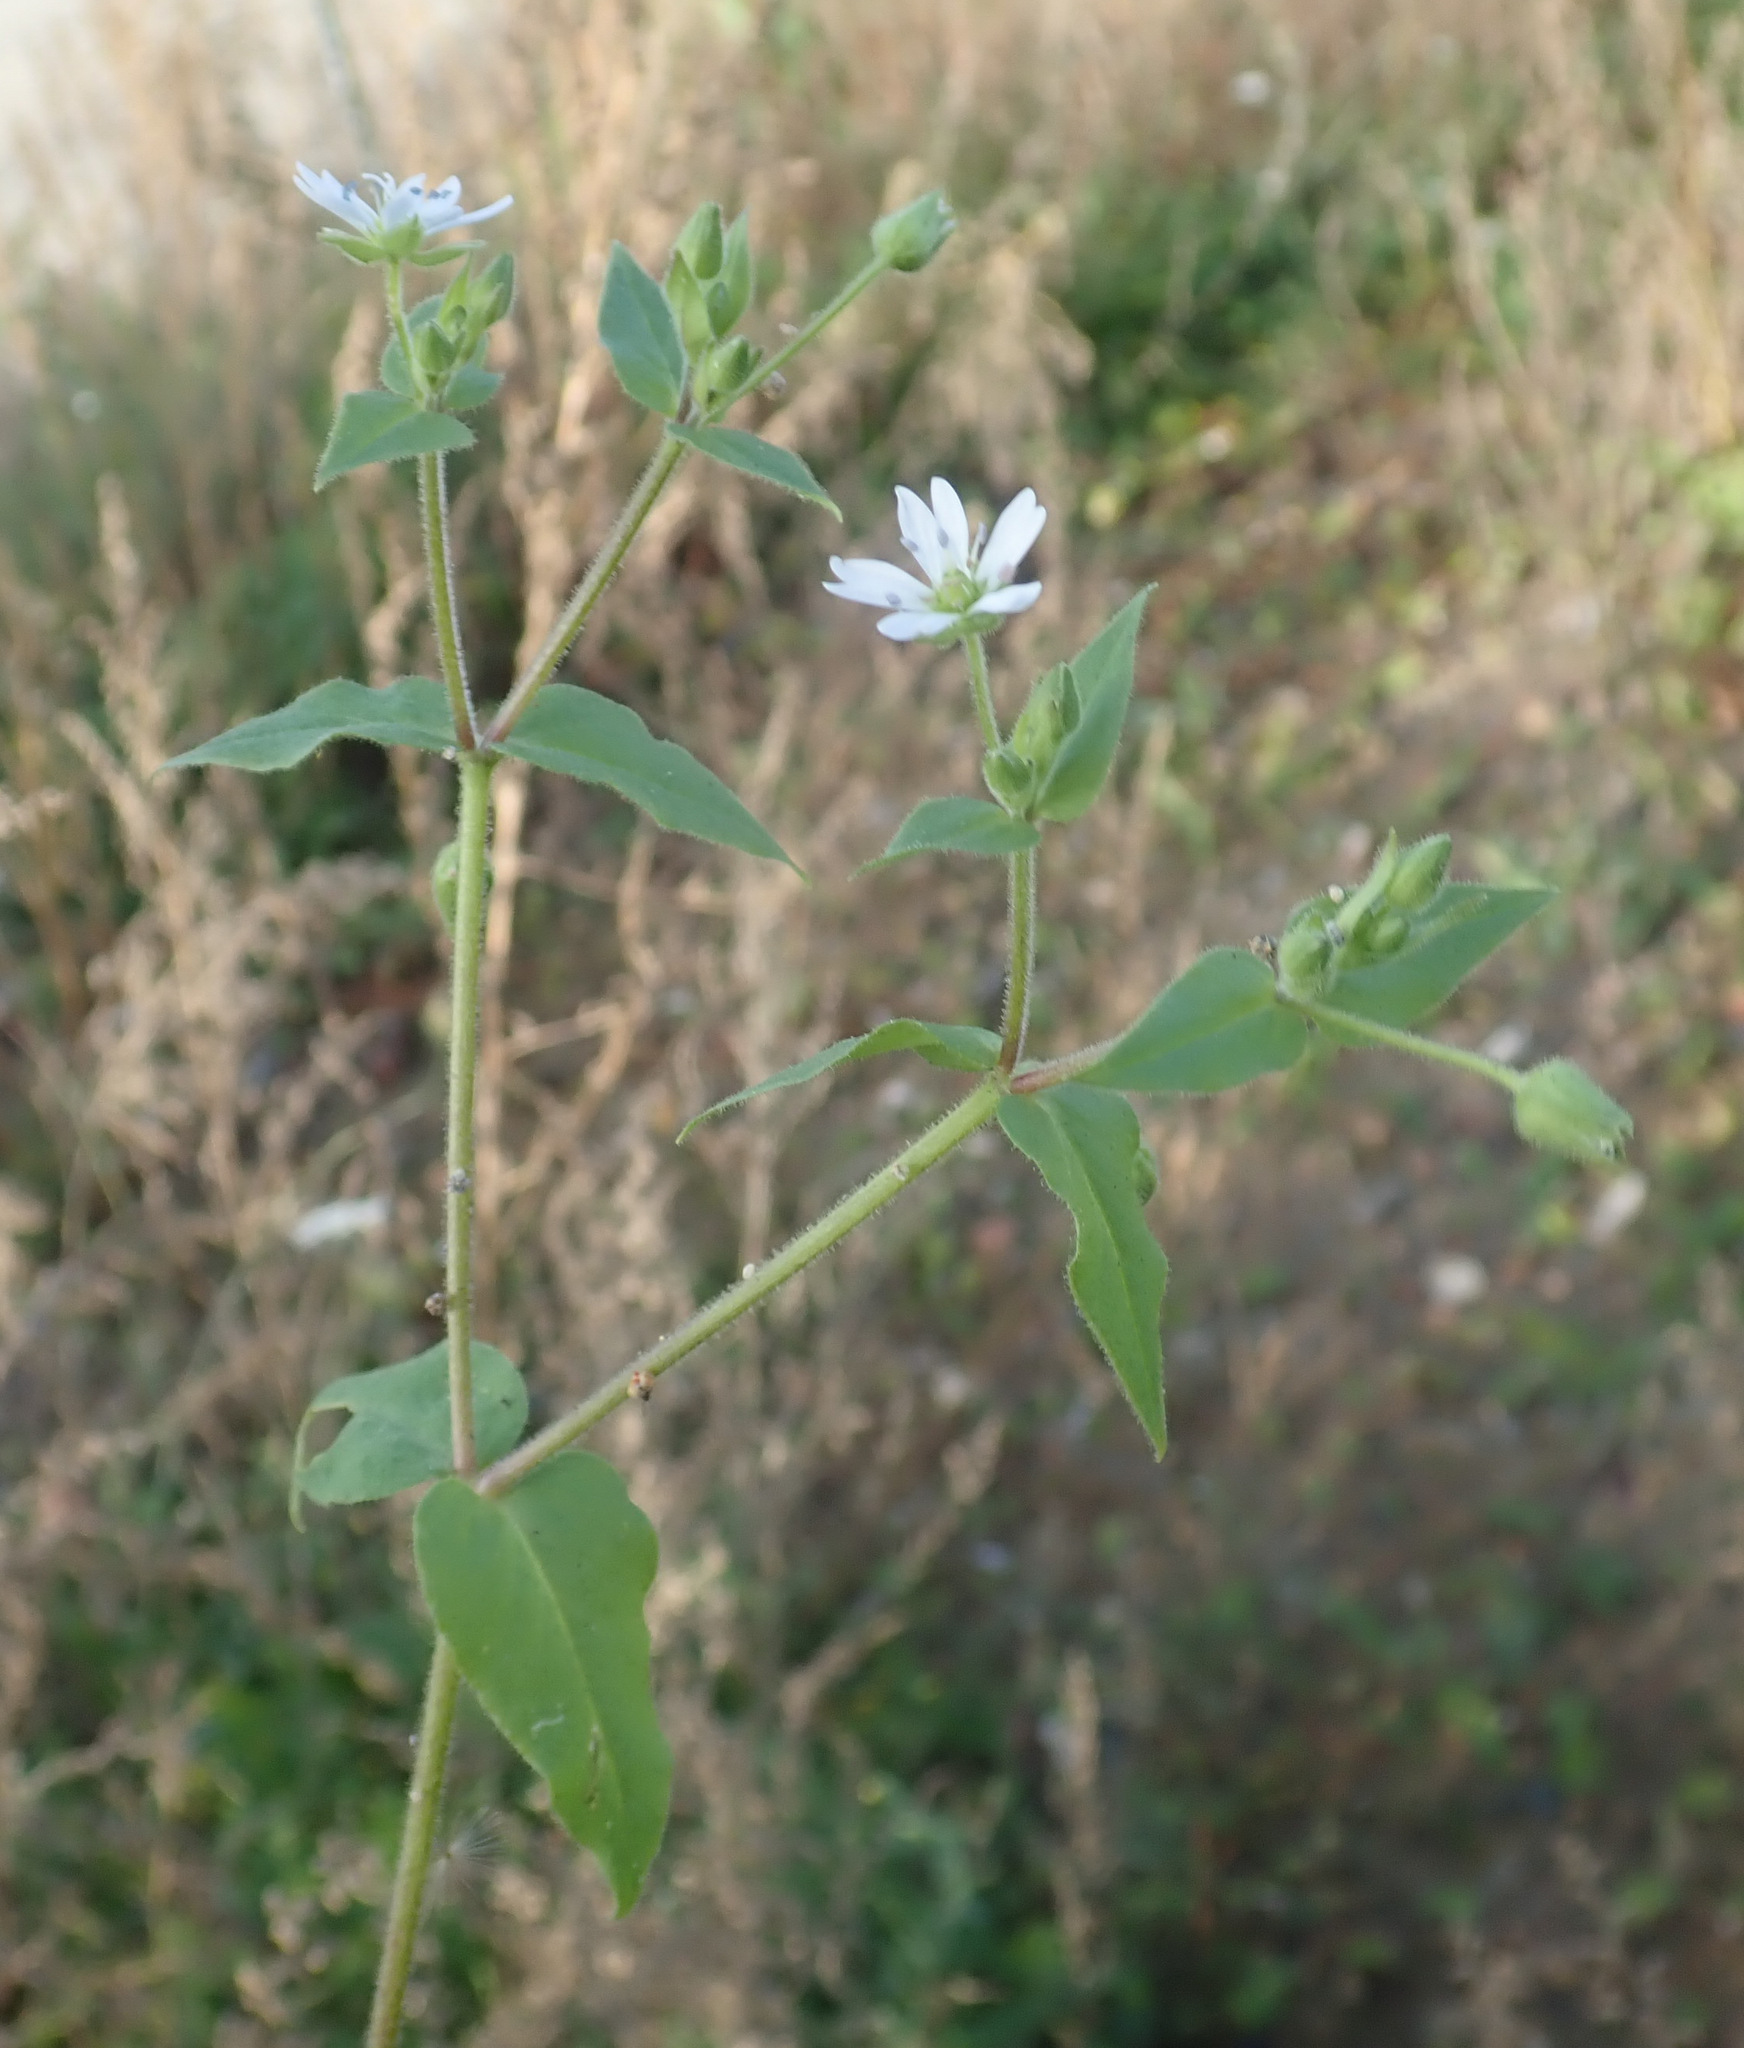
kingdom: Plantae
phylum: Tracheophyta
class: Magnoliopsida
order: Caryophyllales
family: Caryophyllaceae
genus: Stellaria
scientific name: Stellaria aquatica
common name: Water chickweed
